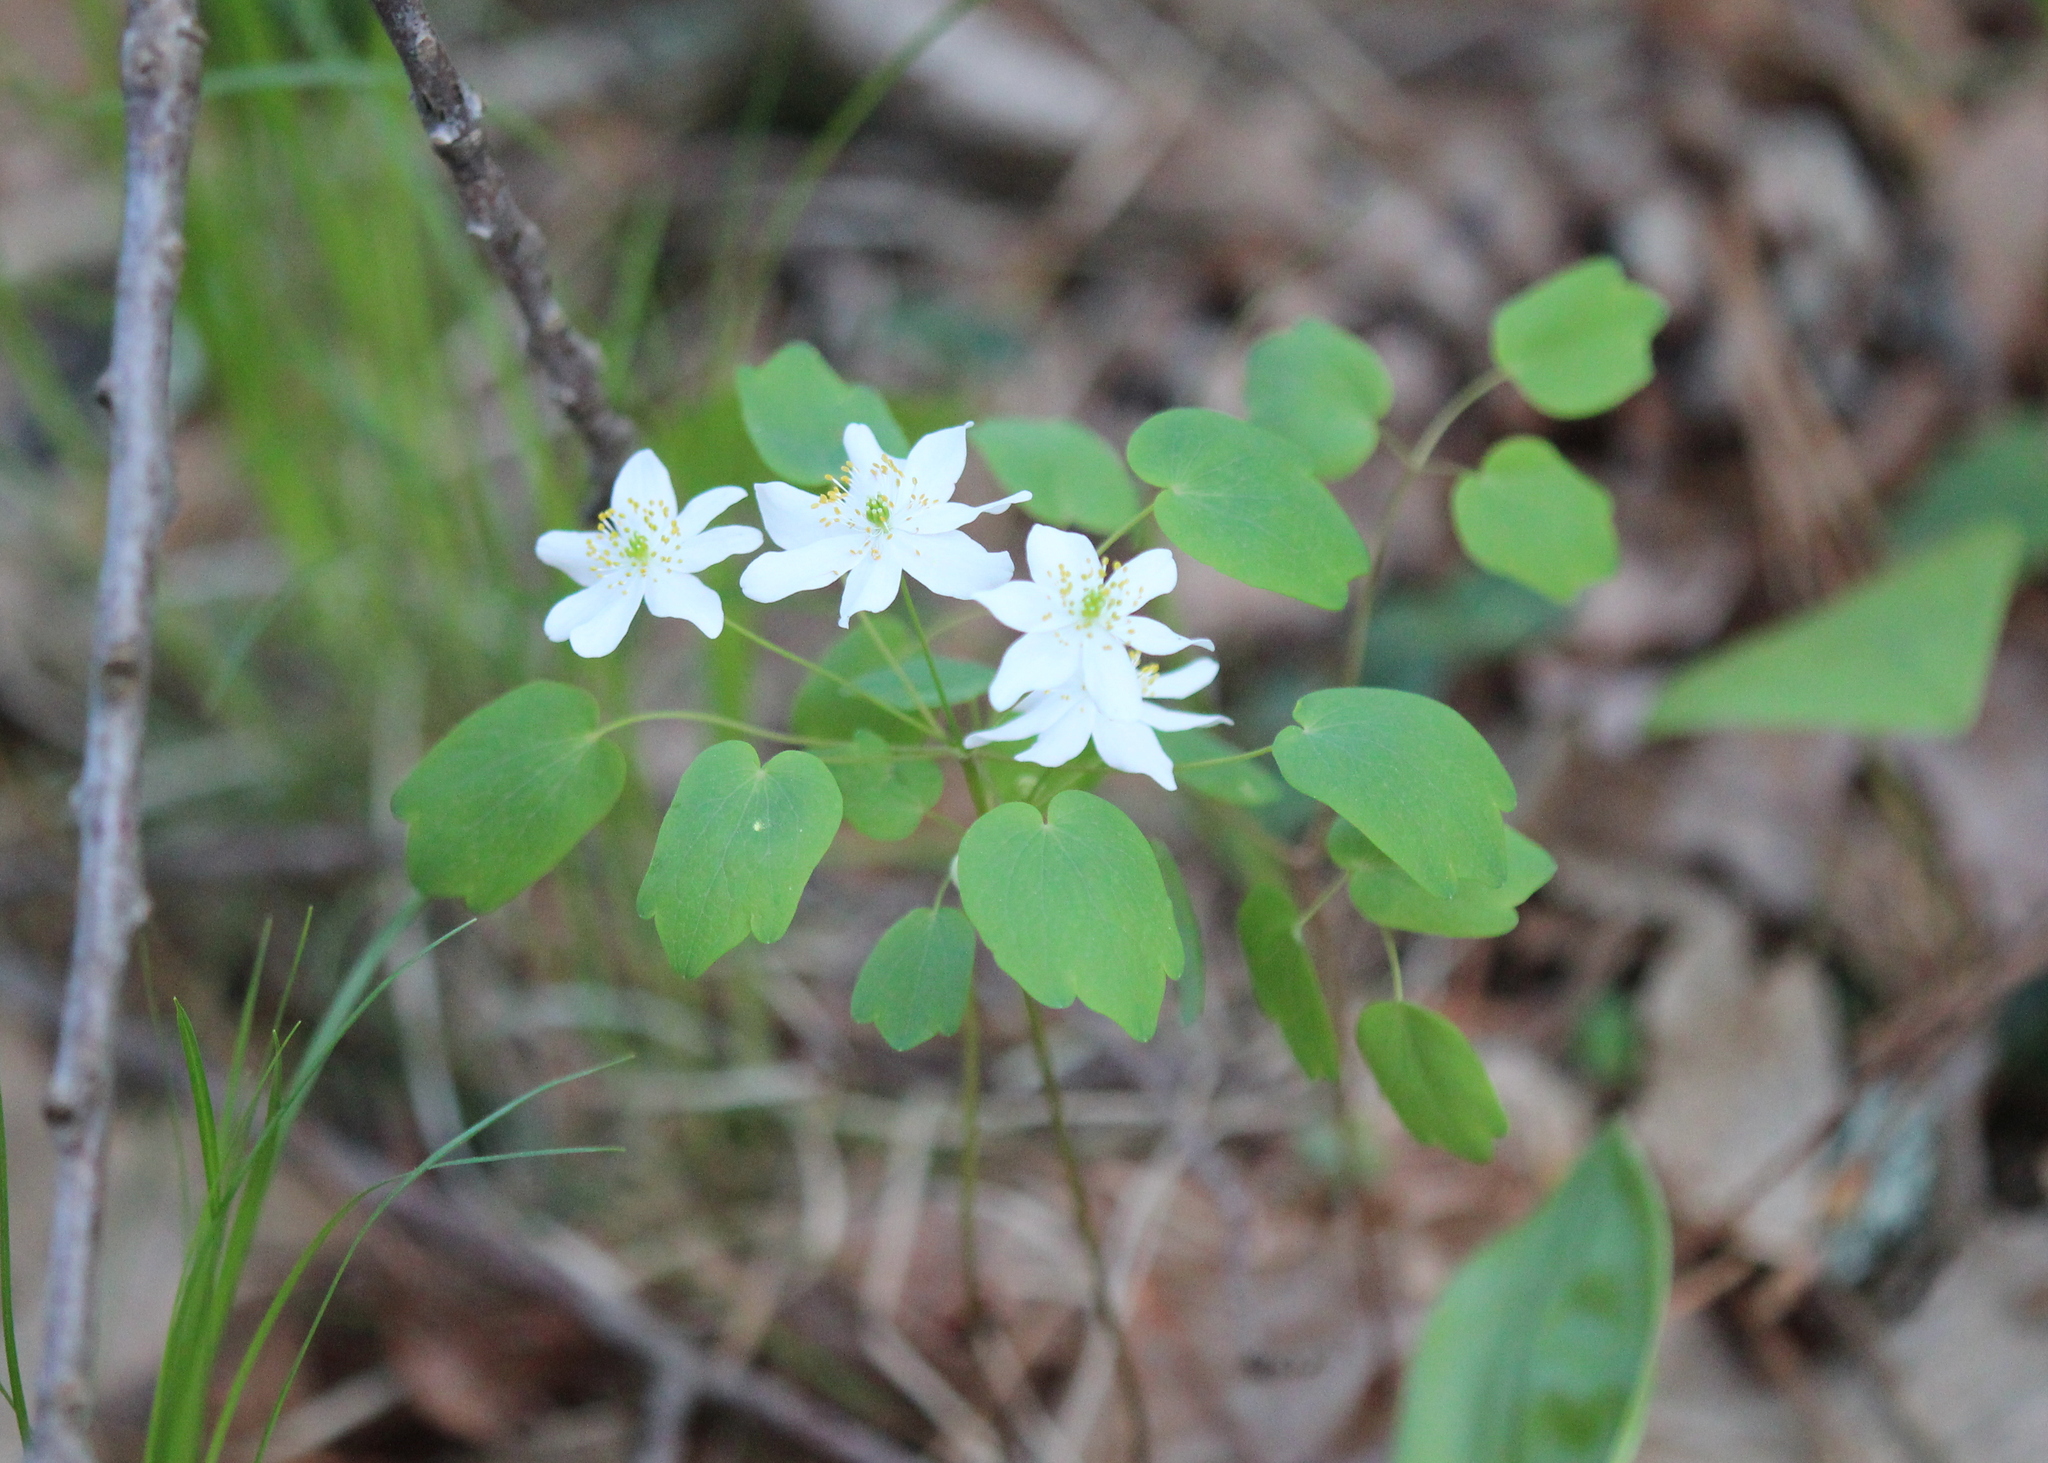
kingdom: Plantae
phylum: Tracheophyta
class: Magnoliopsida
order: Ranunculales
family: Ranunculaceae
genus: Thalictrum
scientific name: Thalictrum thalictroides
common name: Rue-anemone
